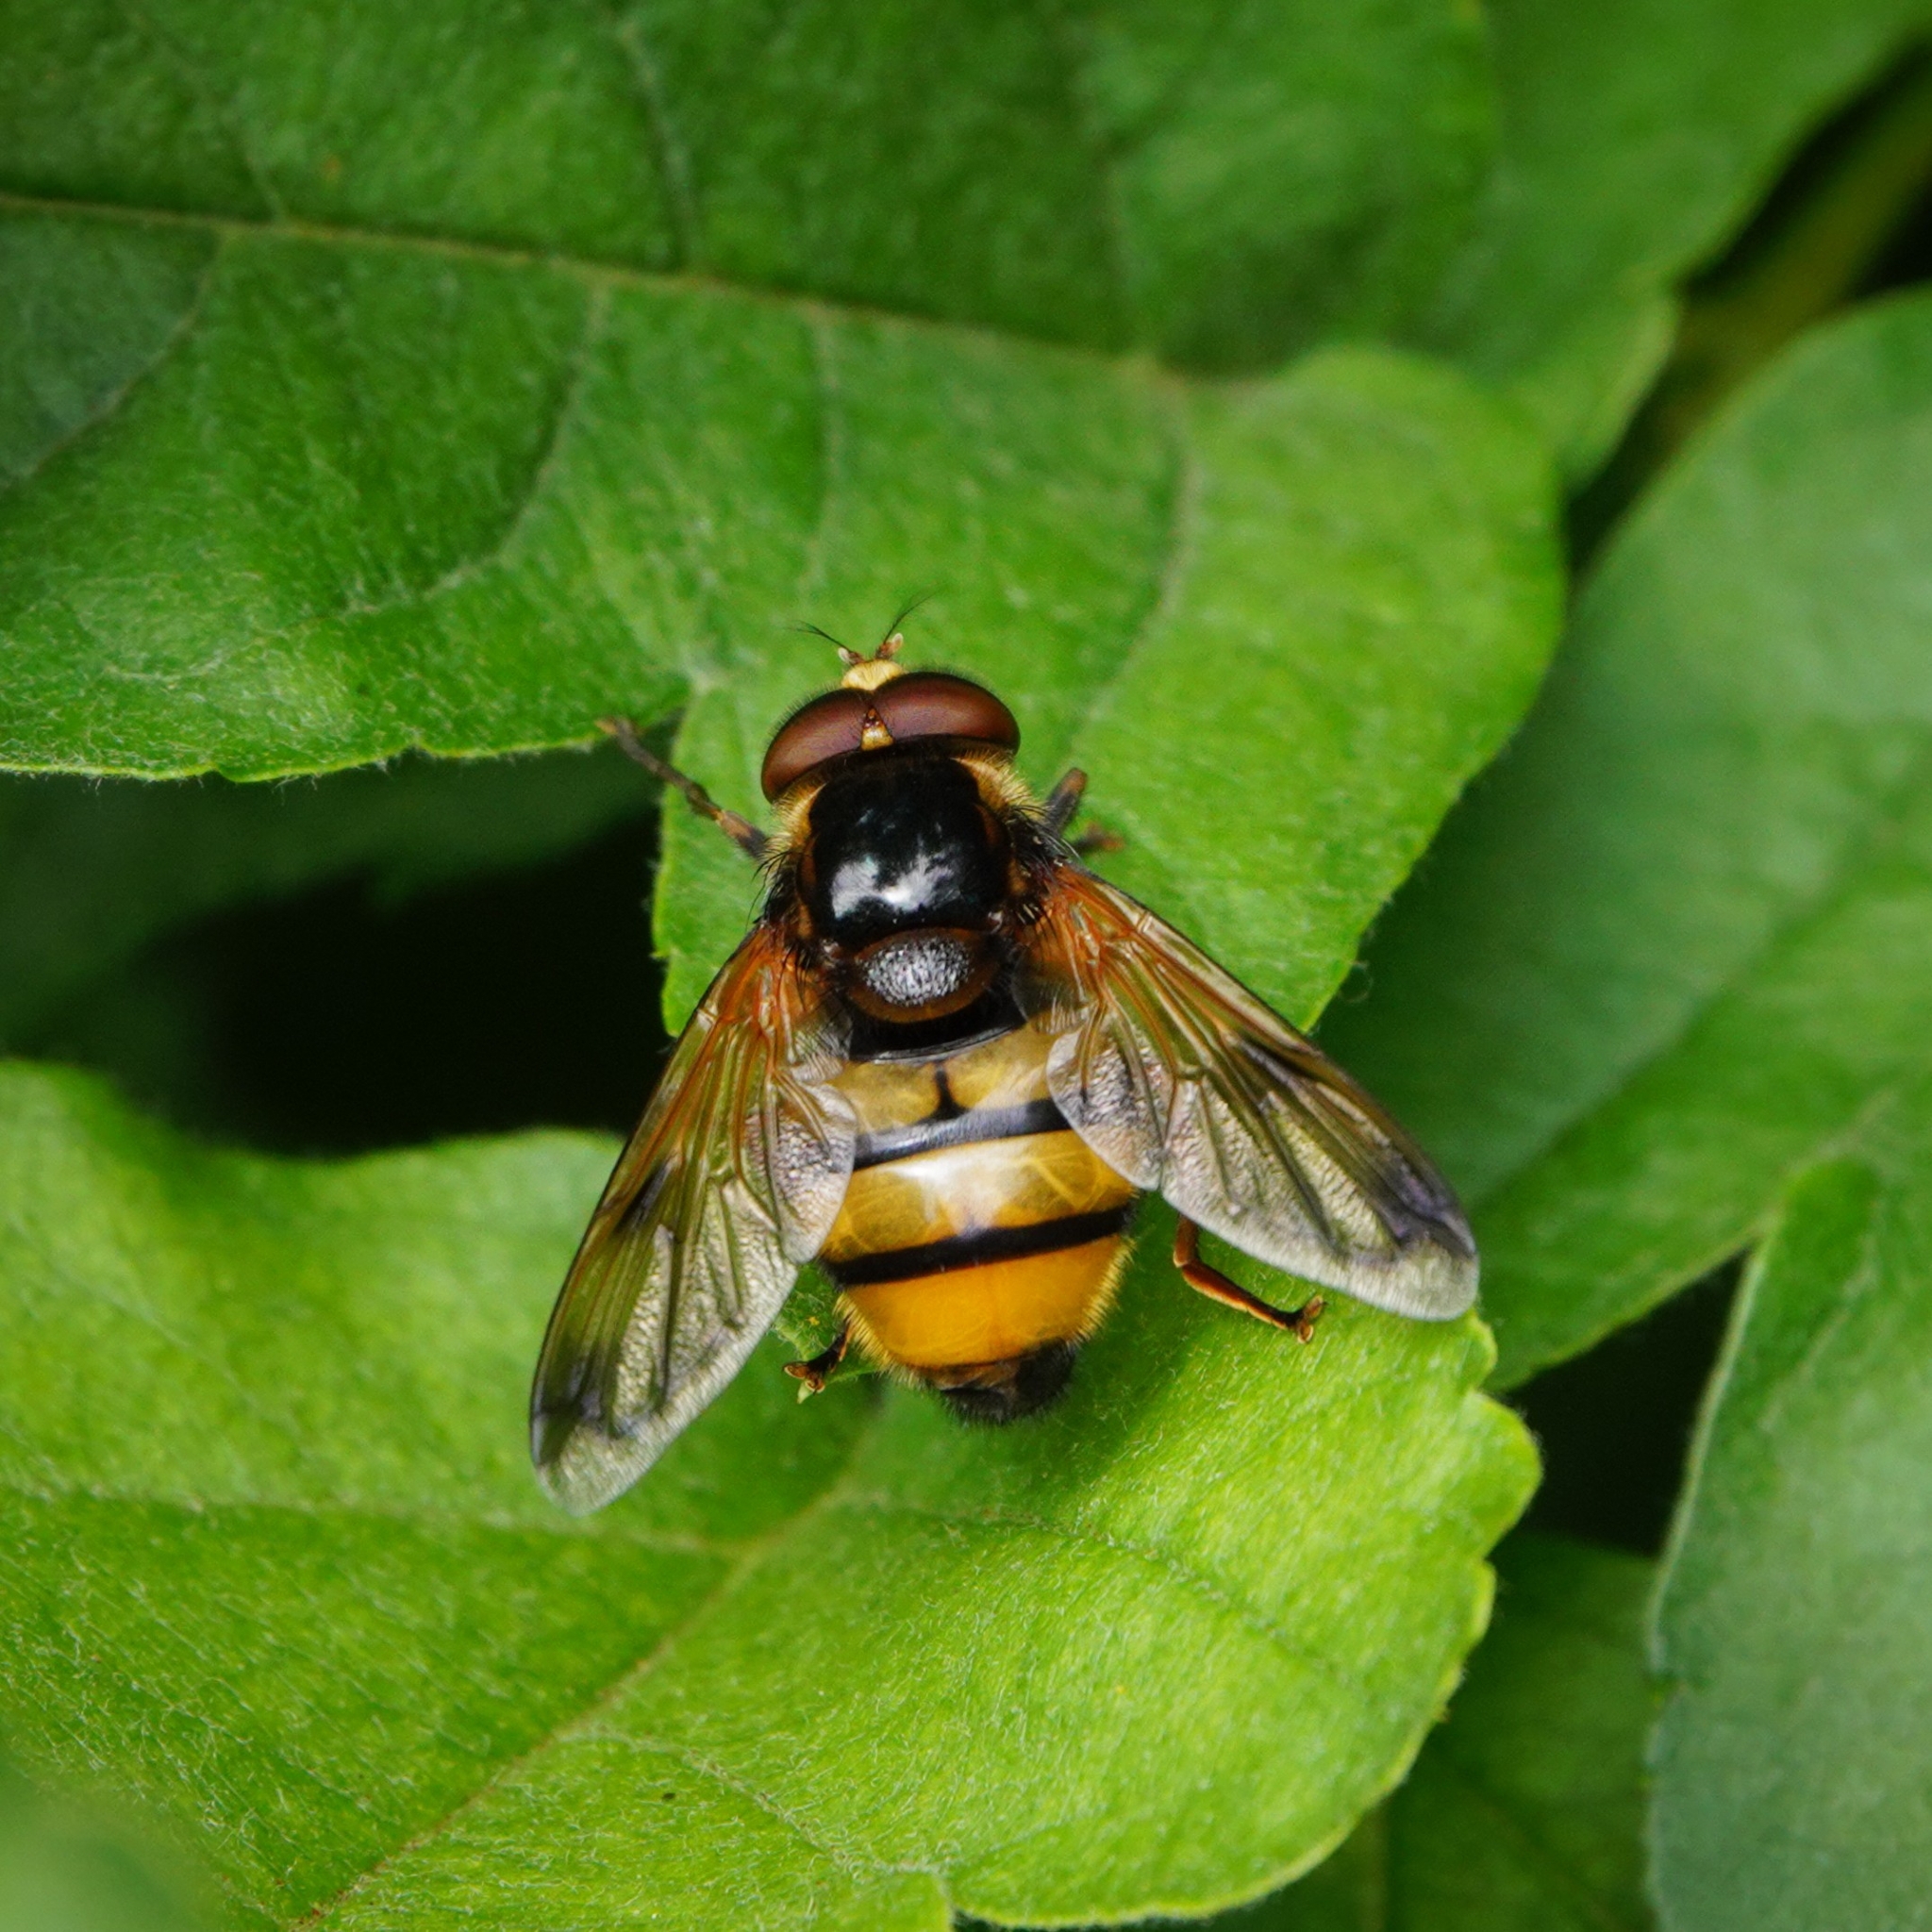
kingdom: Animalia
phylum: Arthropoda
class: Insecta
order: Diptera
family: Syrphidae
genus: Volucella
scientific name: Volucella inanis
